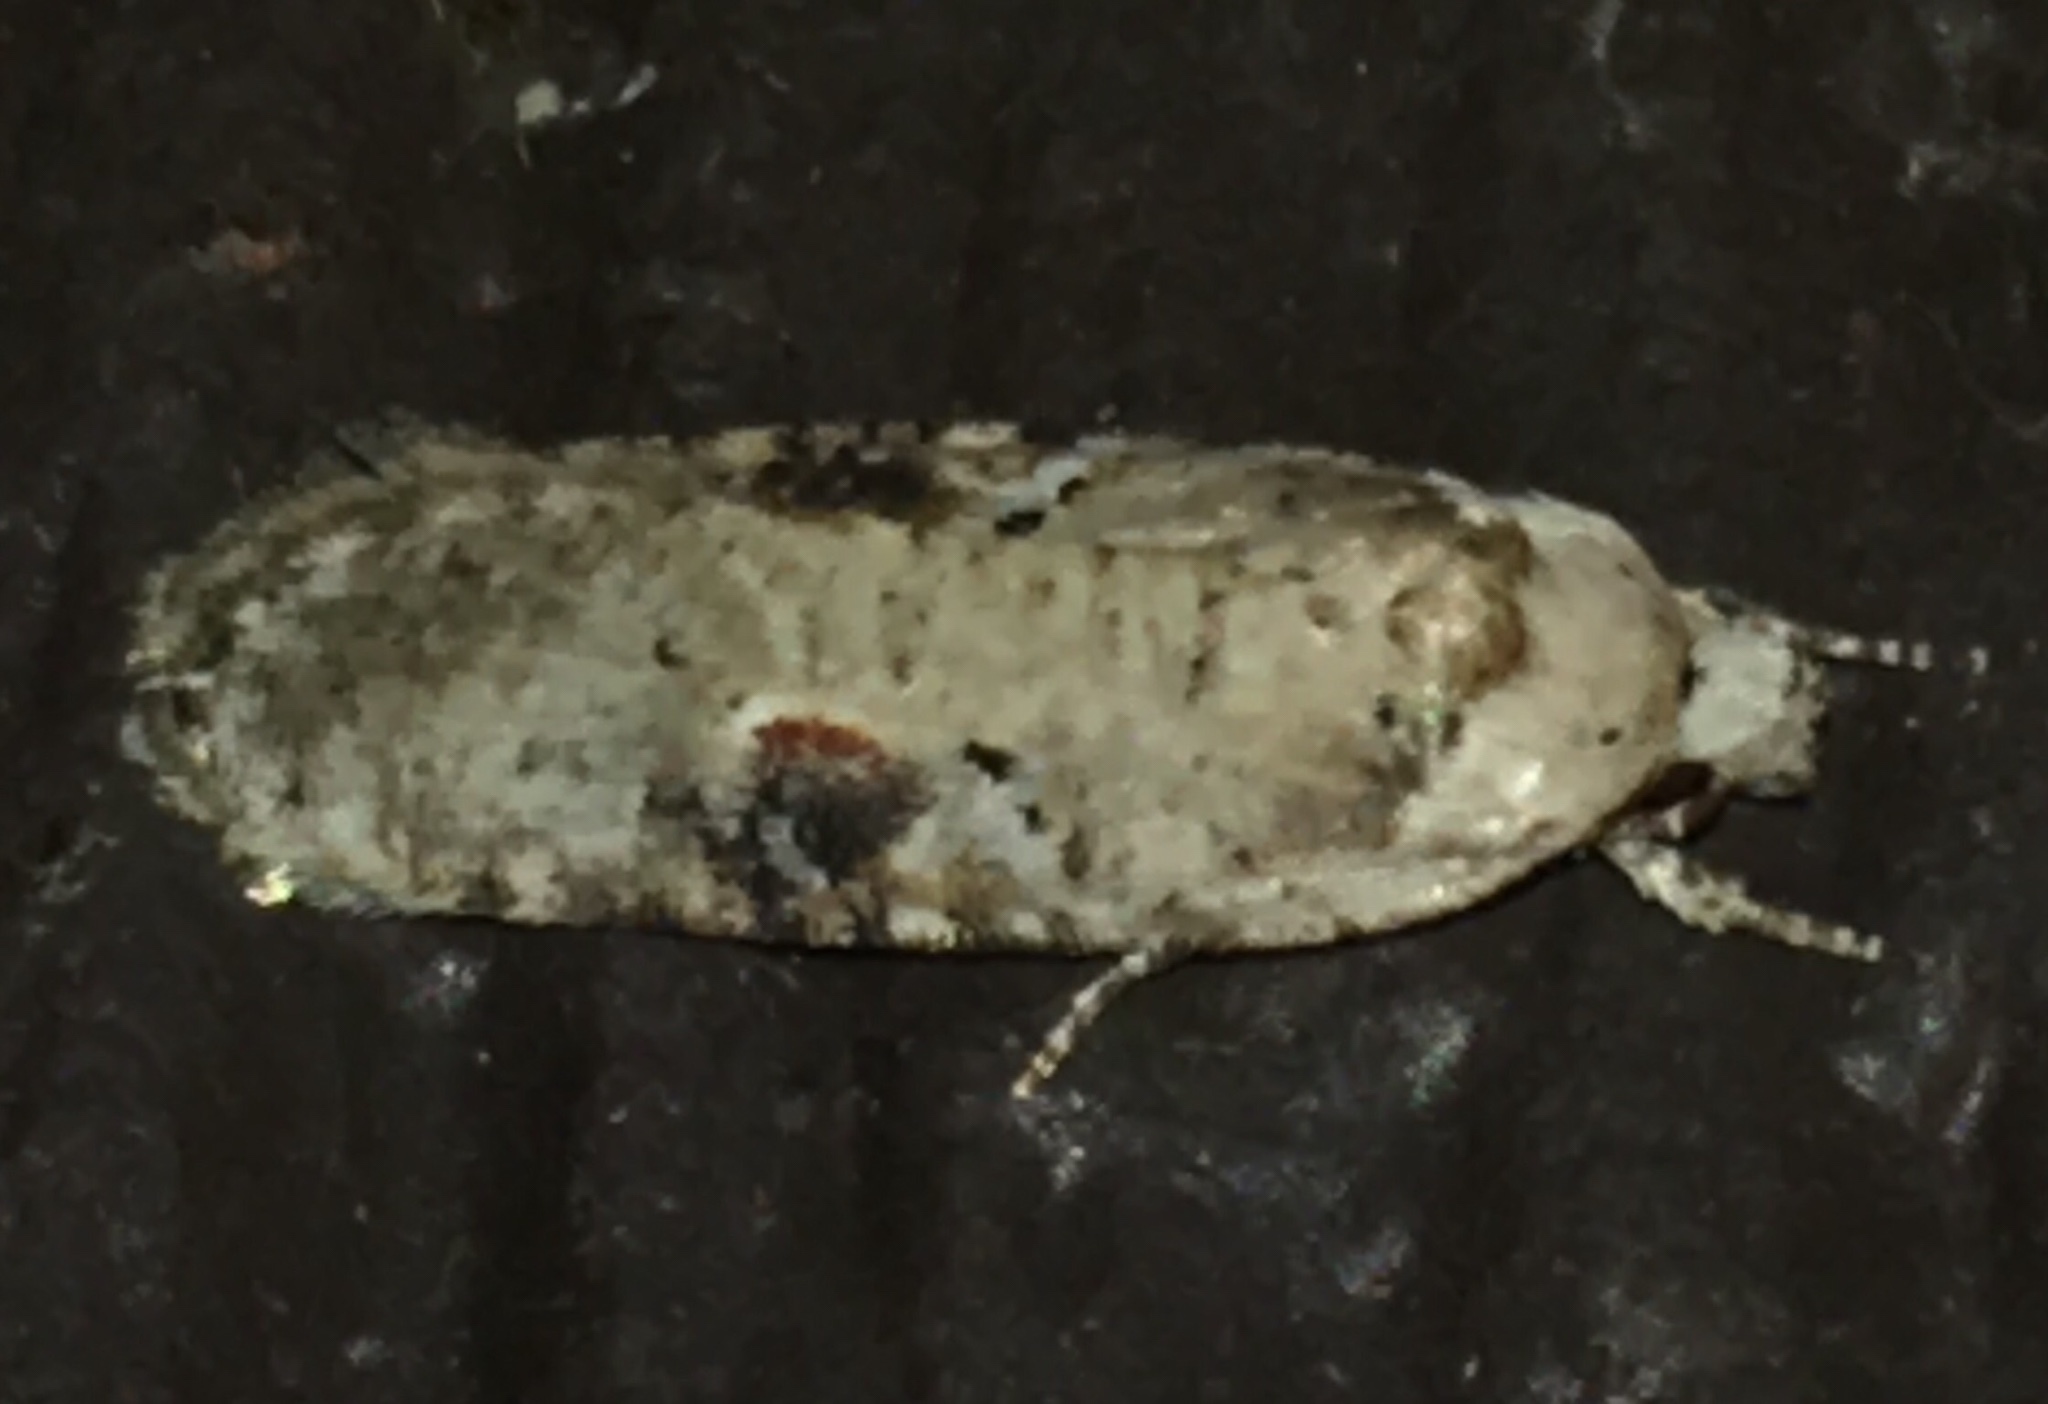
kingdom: Animalia
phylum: Arthropoda
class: Insecta
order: Lepidoptera
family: Depressariidae
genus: Agonopterix
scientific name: Agonopterix alstroemeriana
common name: Moth
